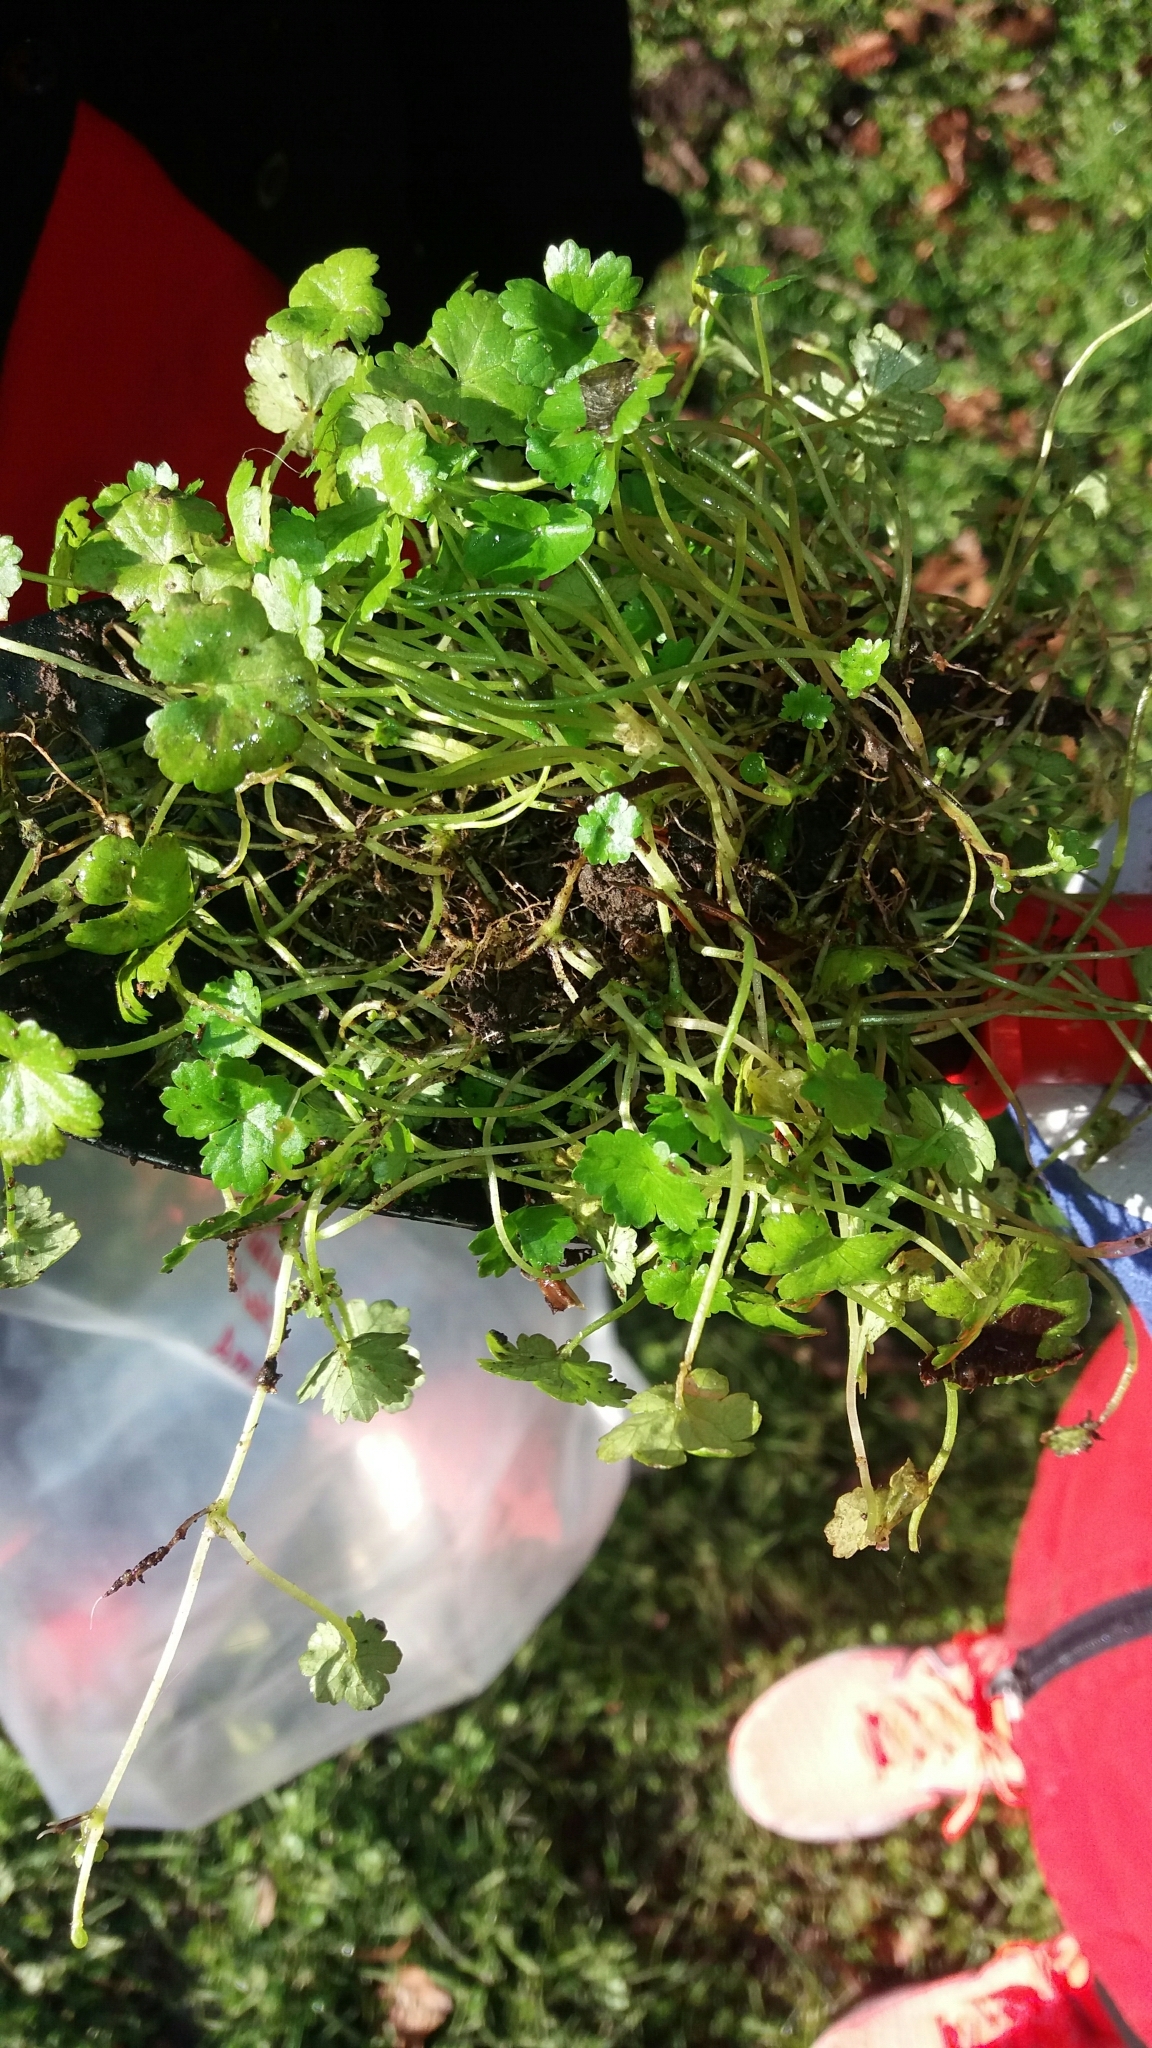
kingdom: Plantae
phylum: Tracheophyta
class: Magnoliopsida
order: Apiales
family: Araliaceae
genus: Hydrocotyle
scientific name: Hydrocotyle heteromeria
